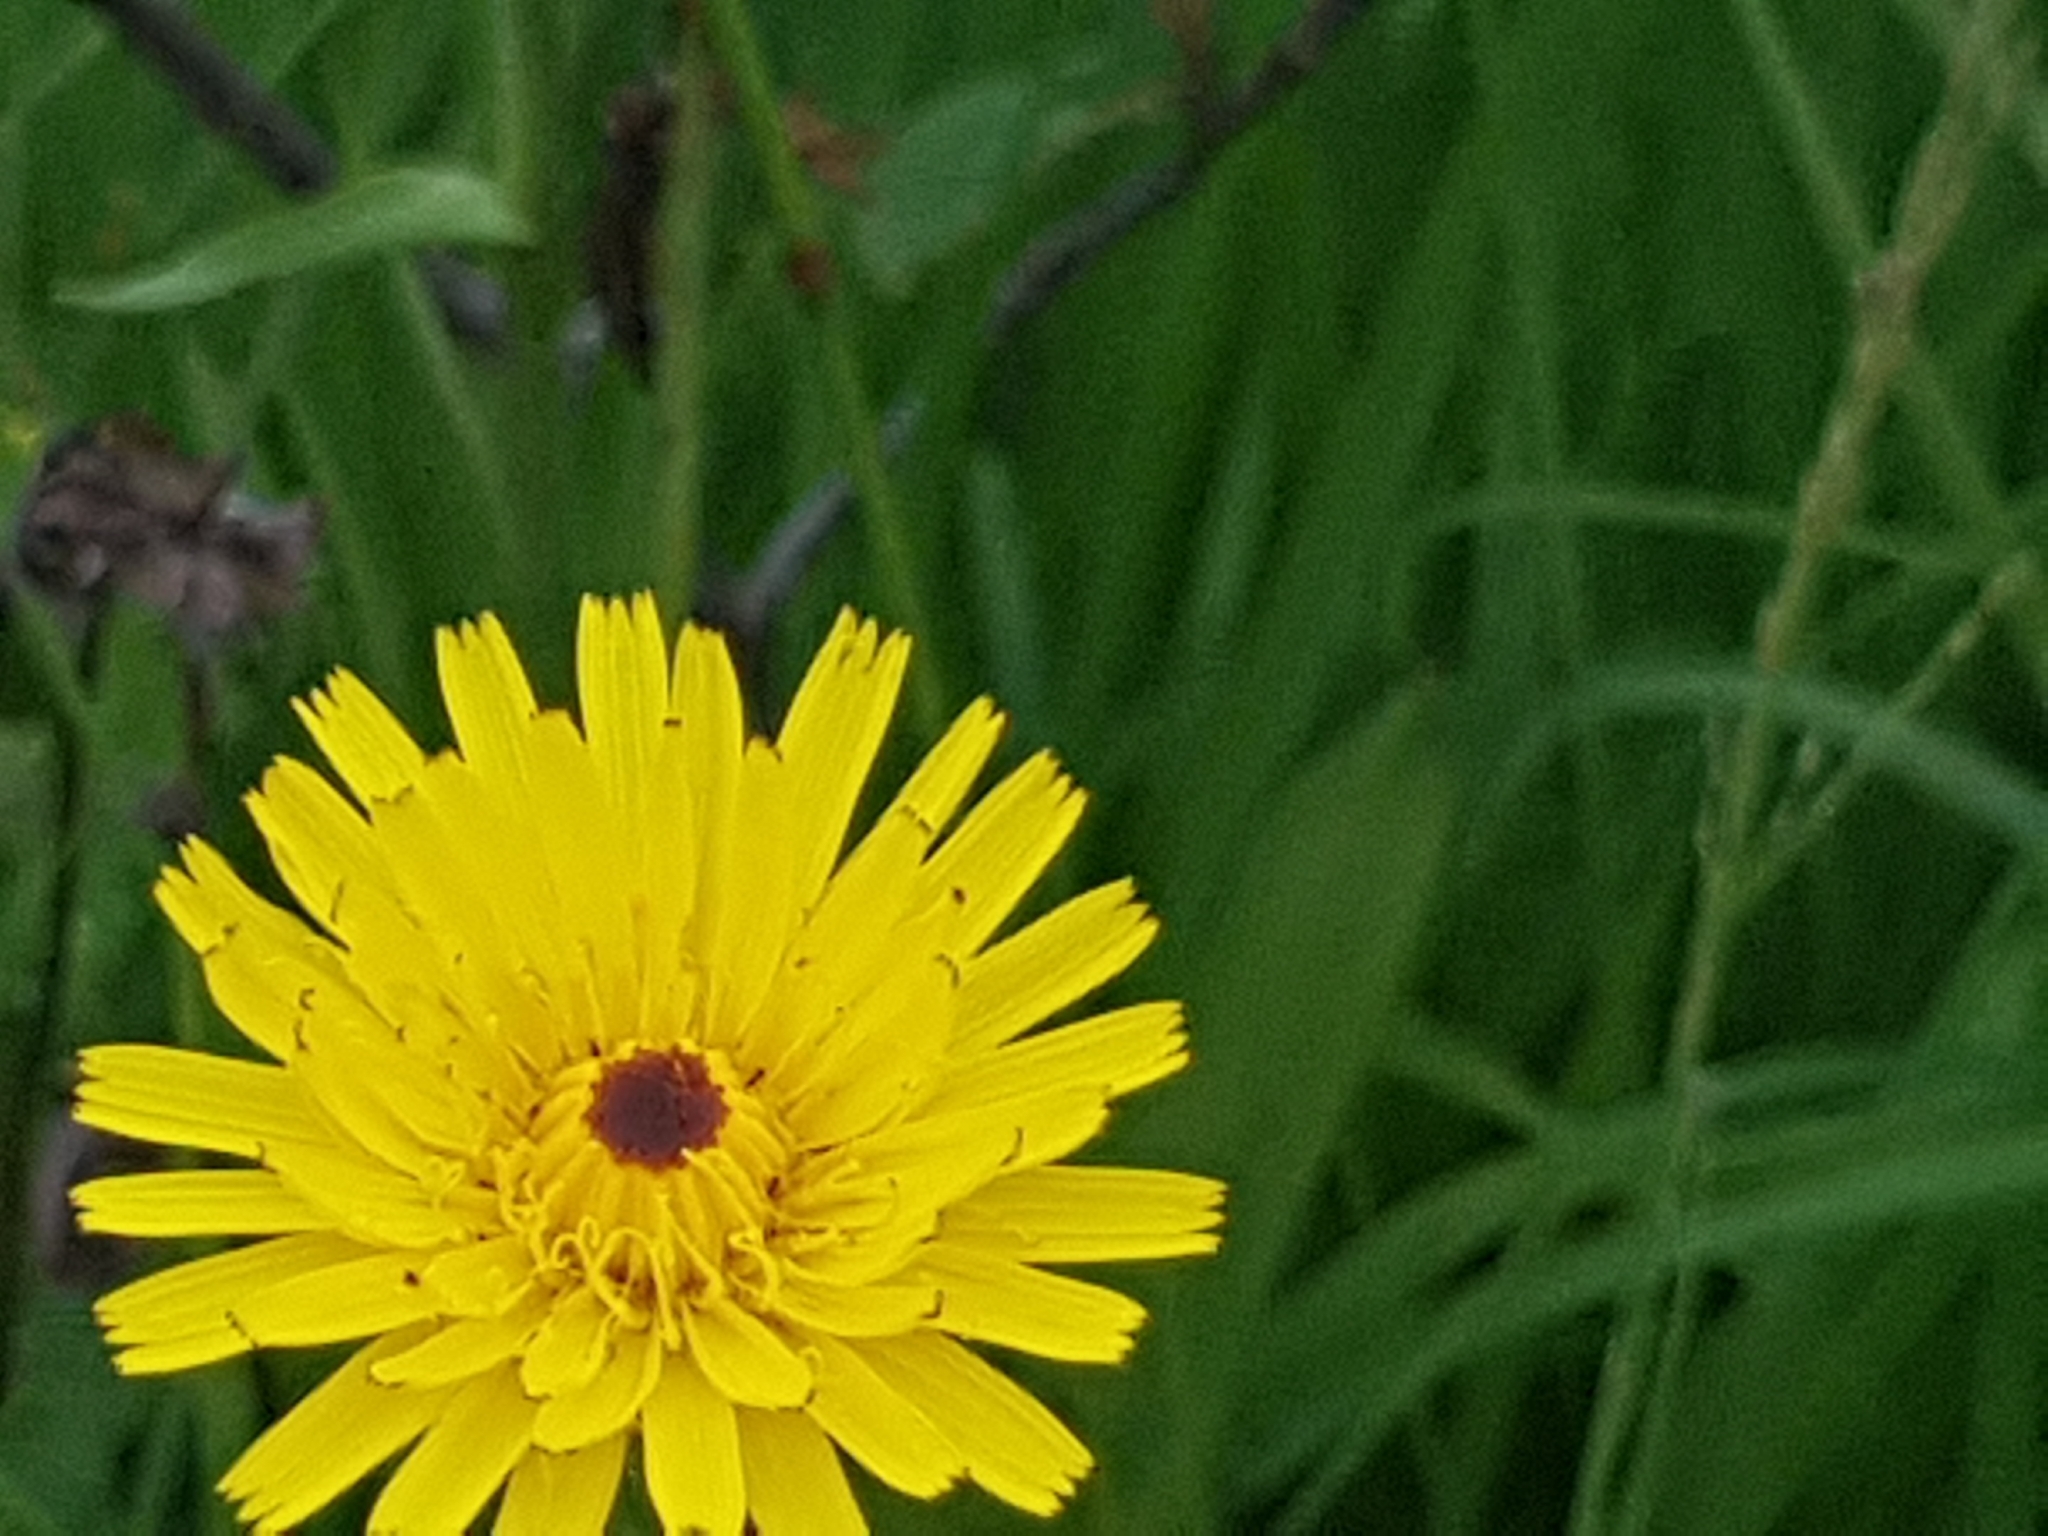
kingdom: Plantae
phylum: Tracheophyta
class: Magnoliopsida
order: Asterales
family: Asteraceae
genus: Leontodon
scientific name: Leontodon hispidus
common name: Rough hawkbit
